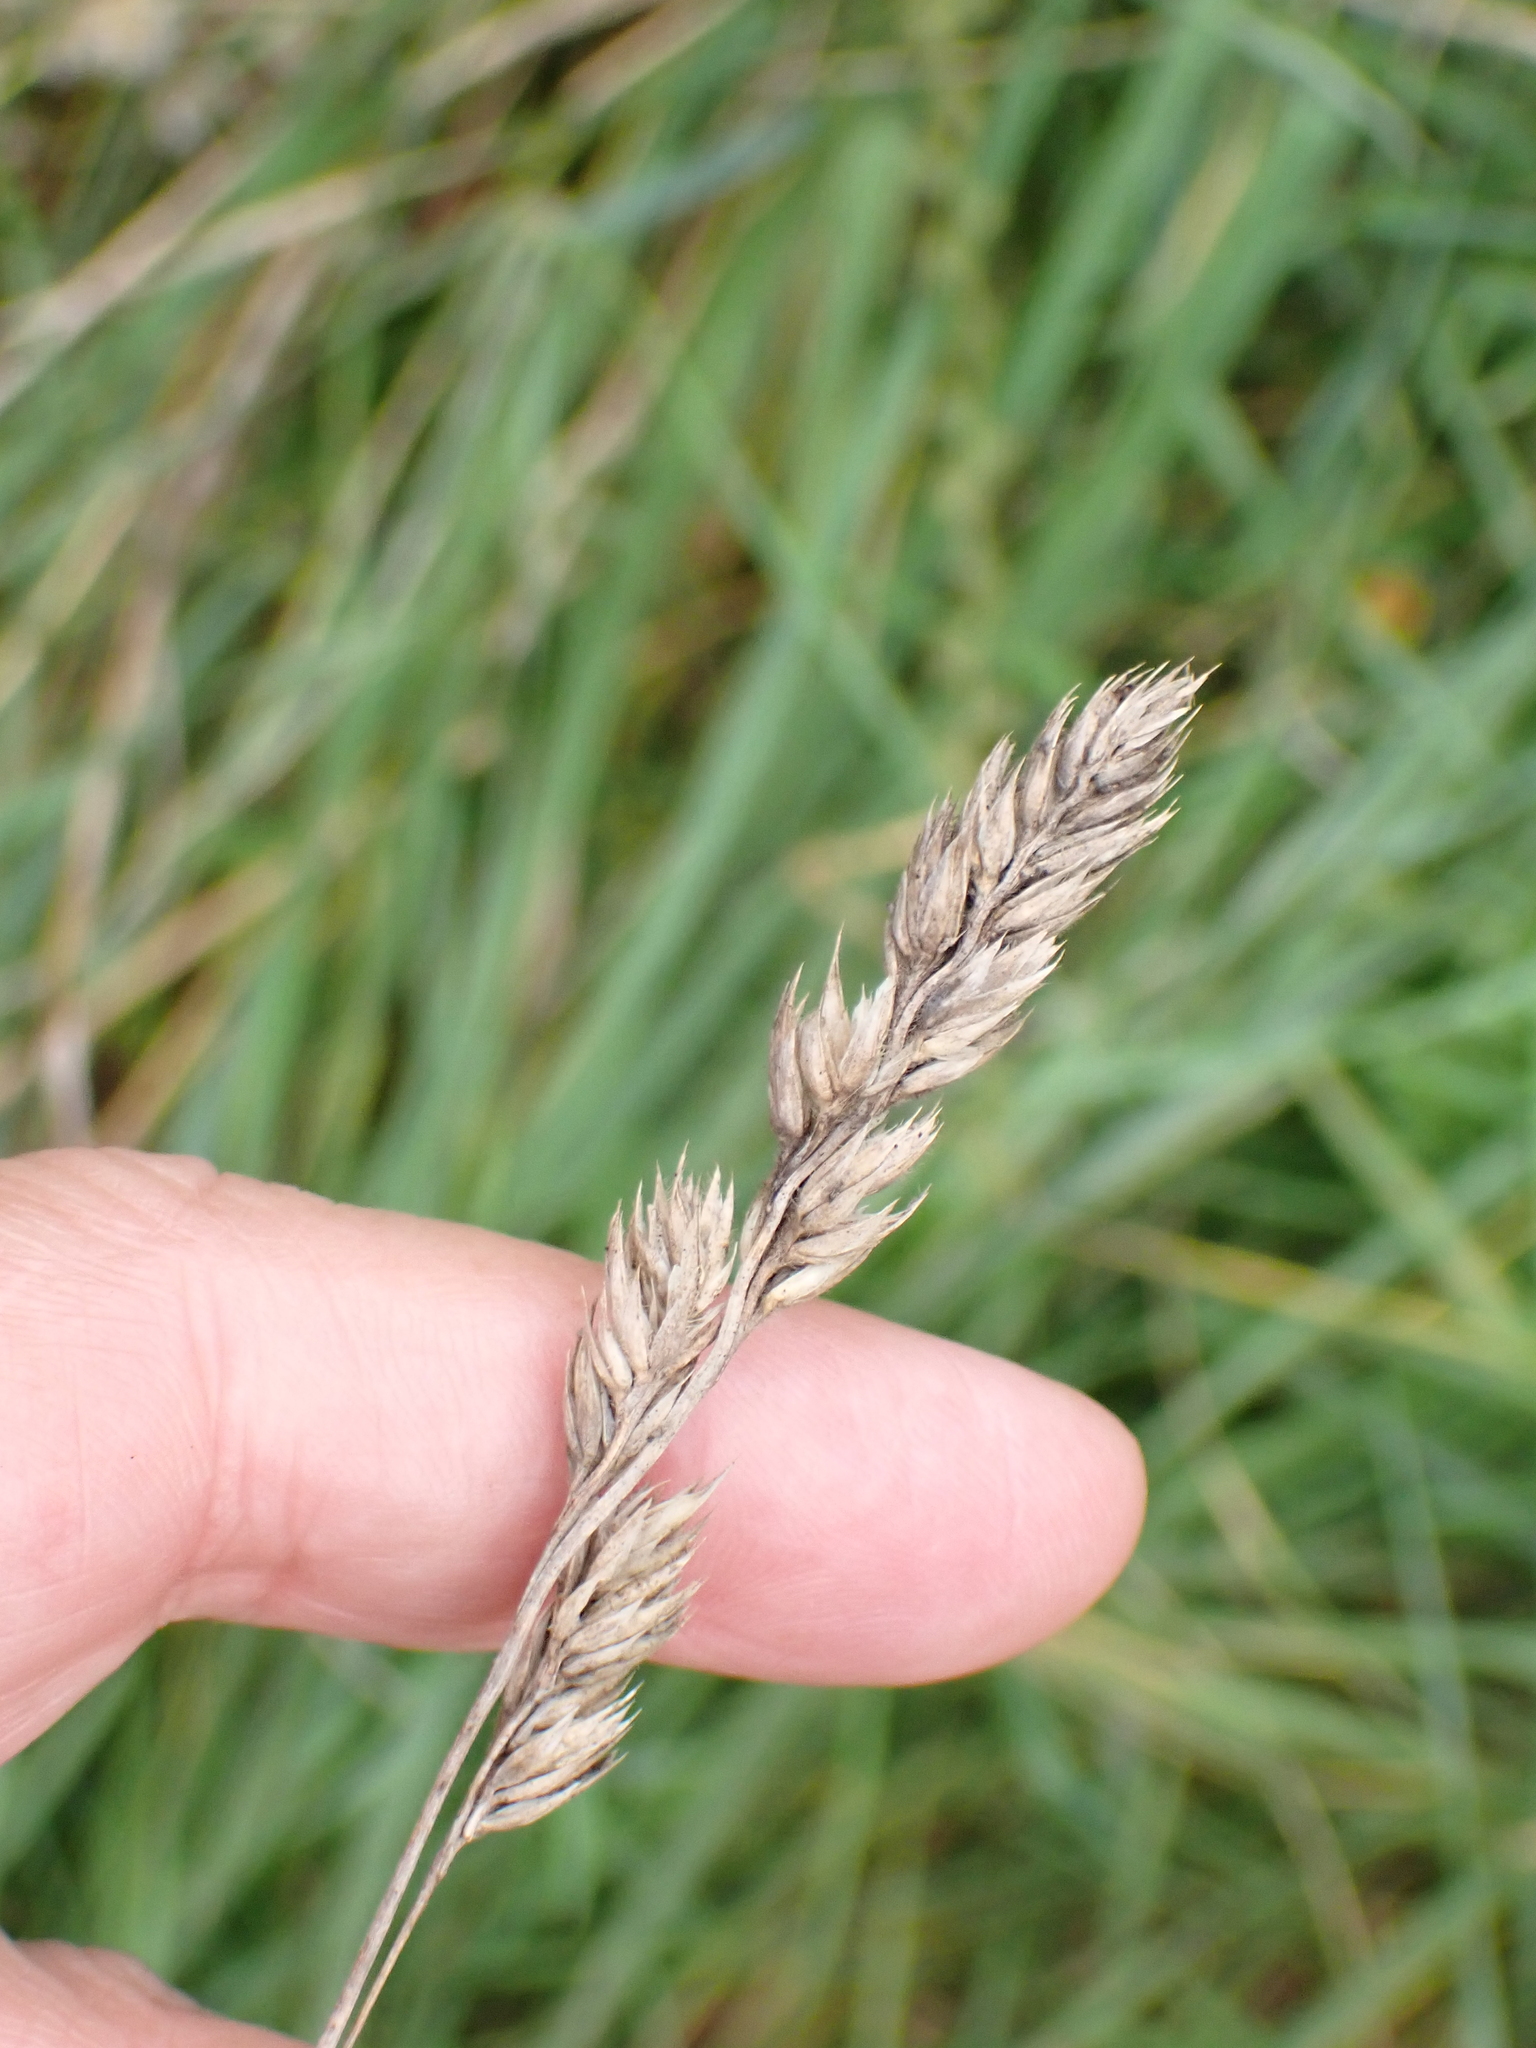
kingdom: Plantae
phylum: Tracheophyta
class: Liliopsida
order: Poales
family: Poaceae
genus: Dactylis
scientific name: Dactylis glomerata
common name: Orchardgrass
